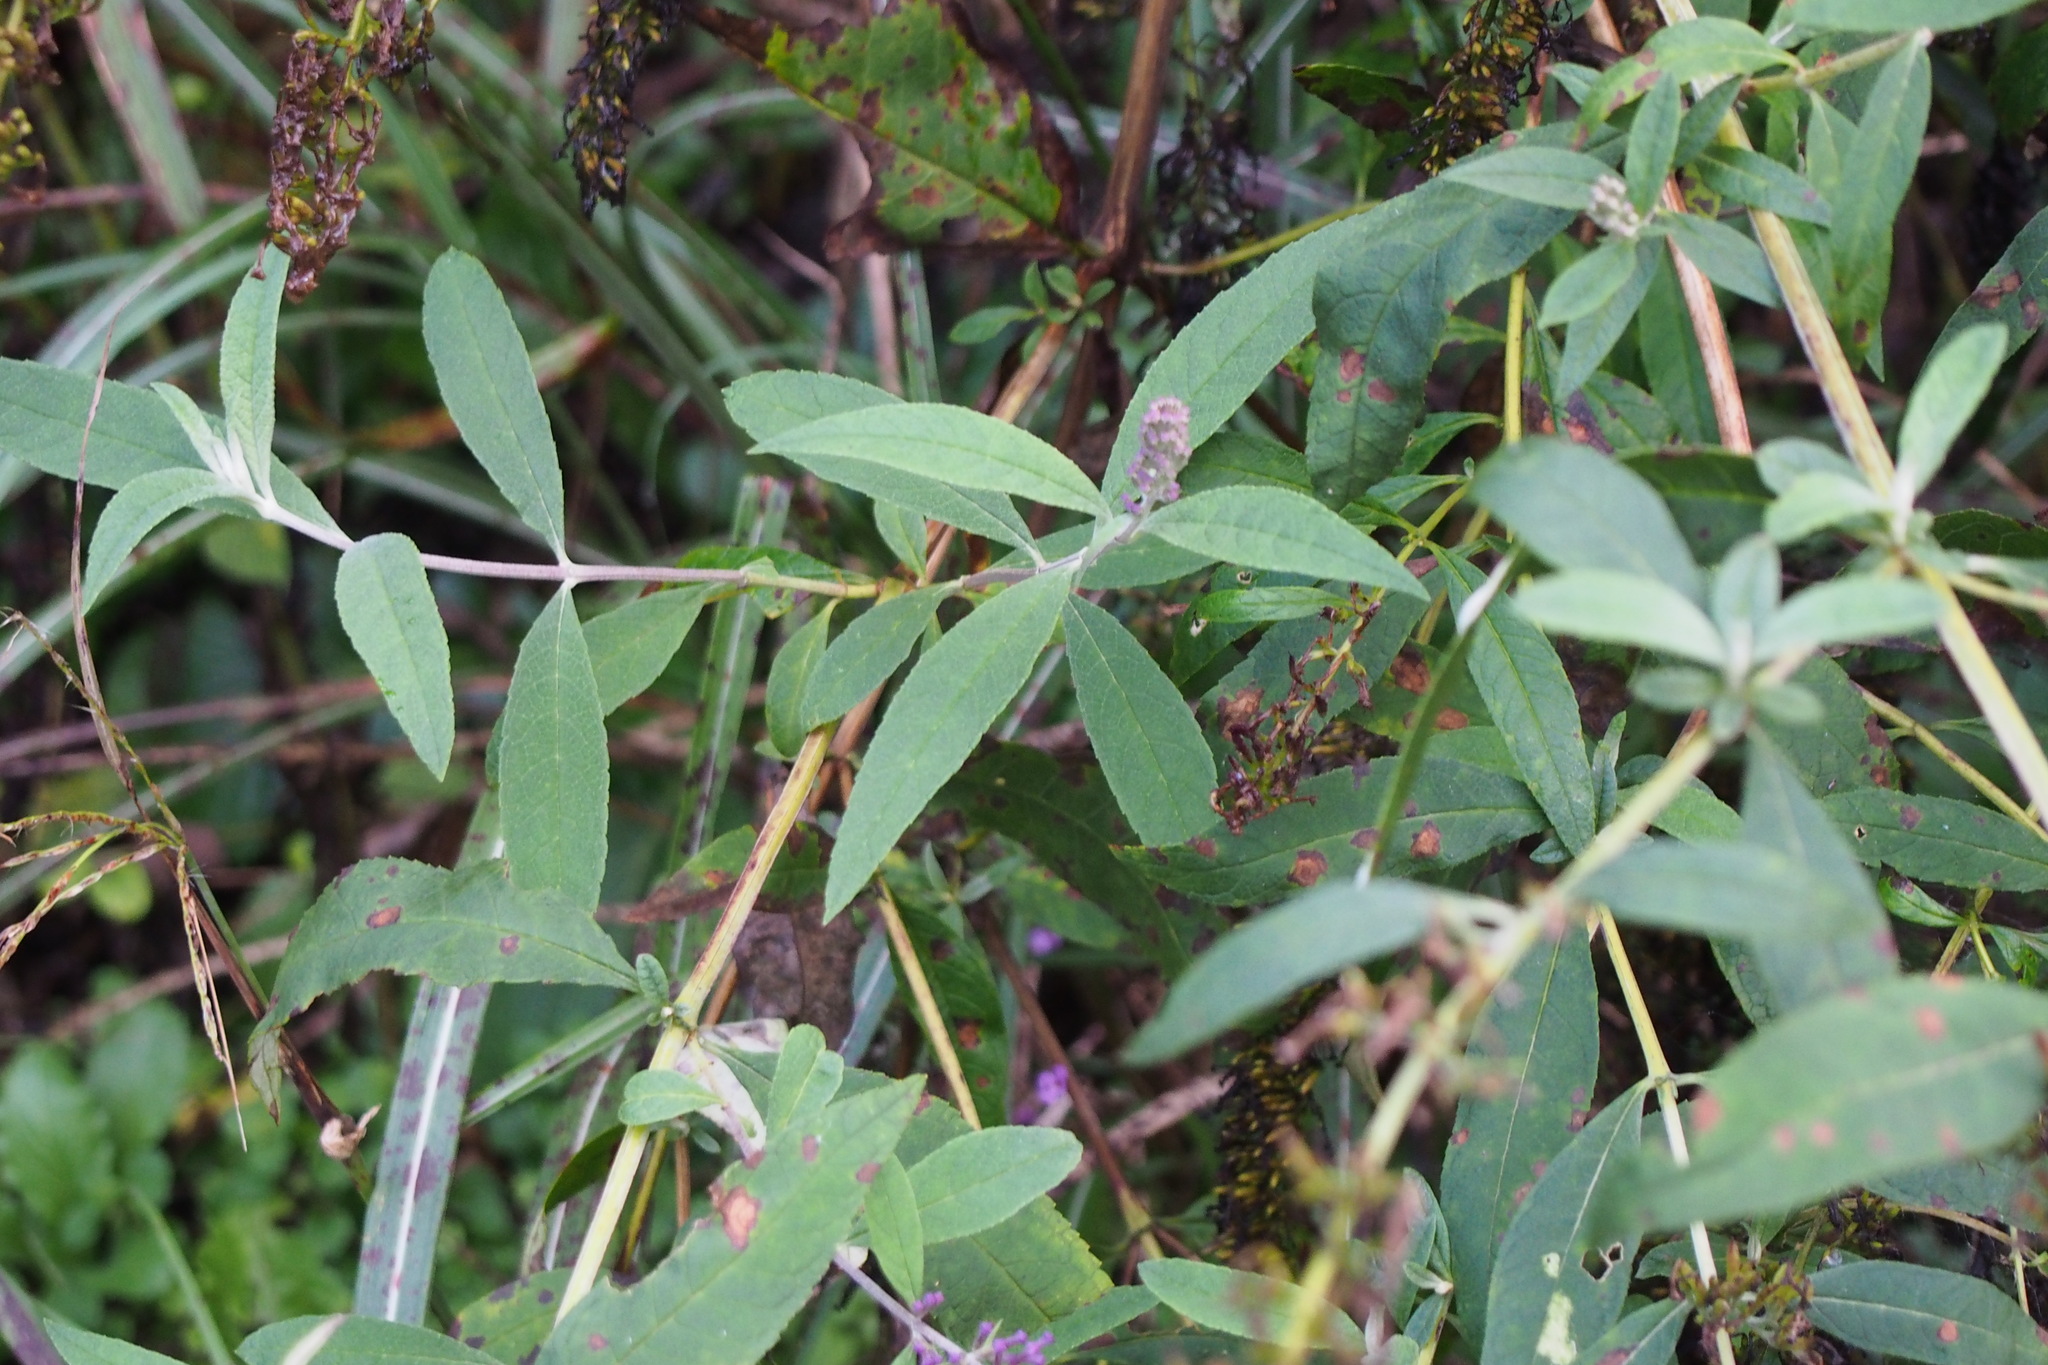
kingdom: Plantae
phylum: Tracheophyta
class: Magnoliopsida
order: Lamiales
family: Scrophulariaceae
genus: Buddleja
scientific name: Buddleja davidii
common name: Butterfly-bush
